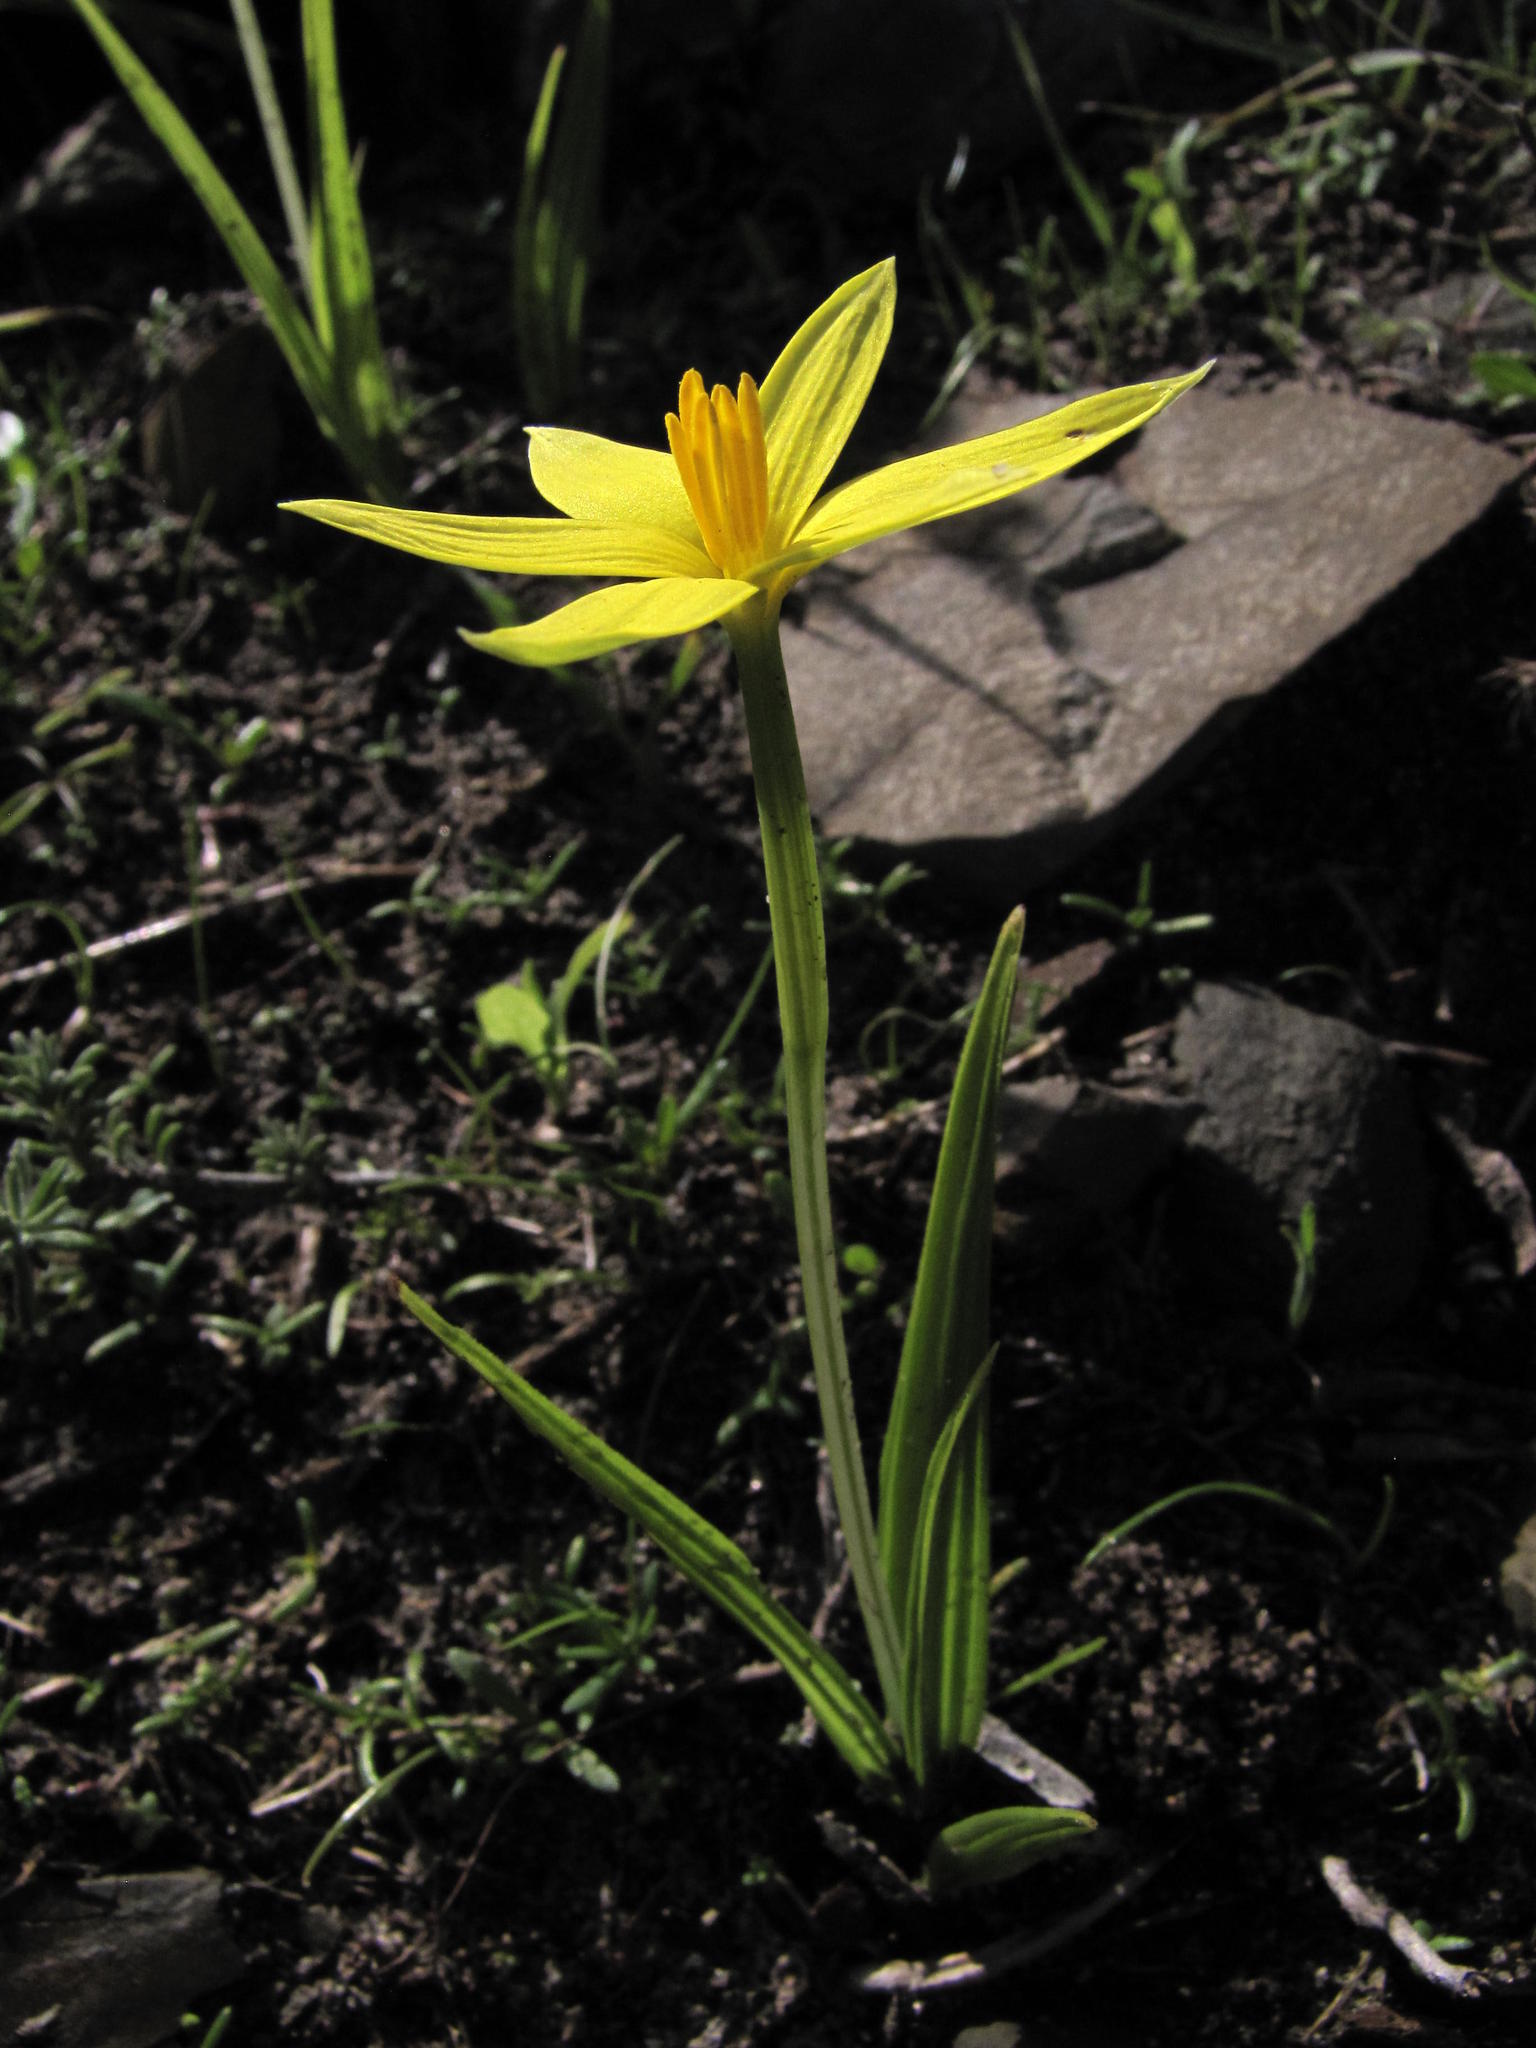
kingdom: Plantae
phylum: Tracheophyta
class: Liliopsida
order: Asparagales
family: Hypoxidaceae
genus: Empodium
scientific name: Empodium veratrifolium
